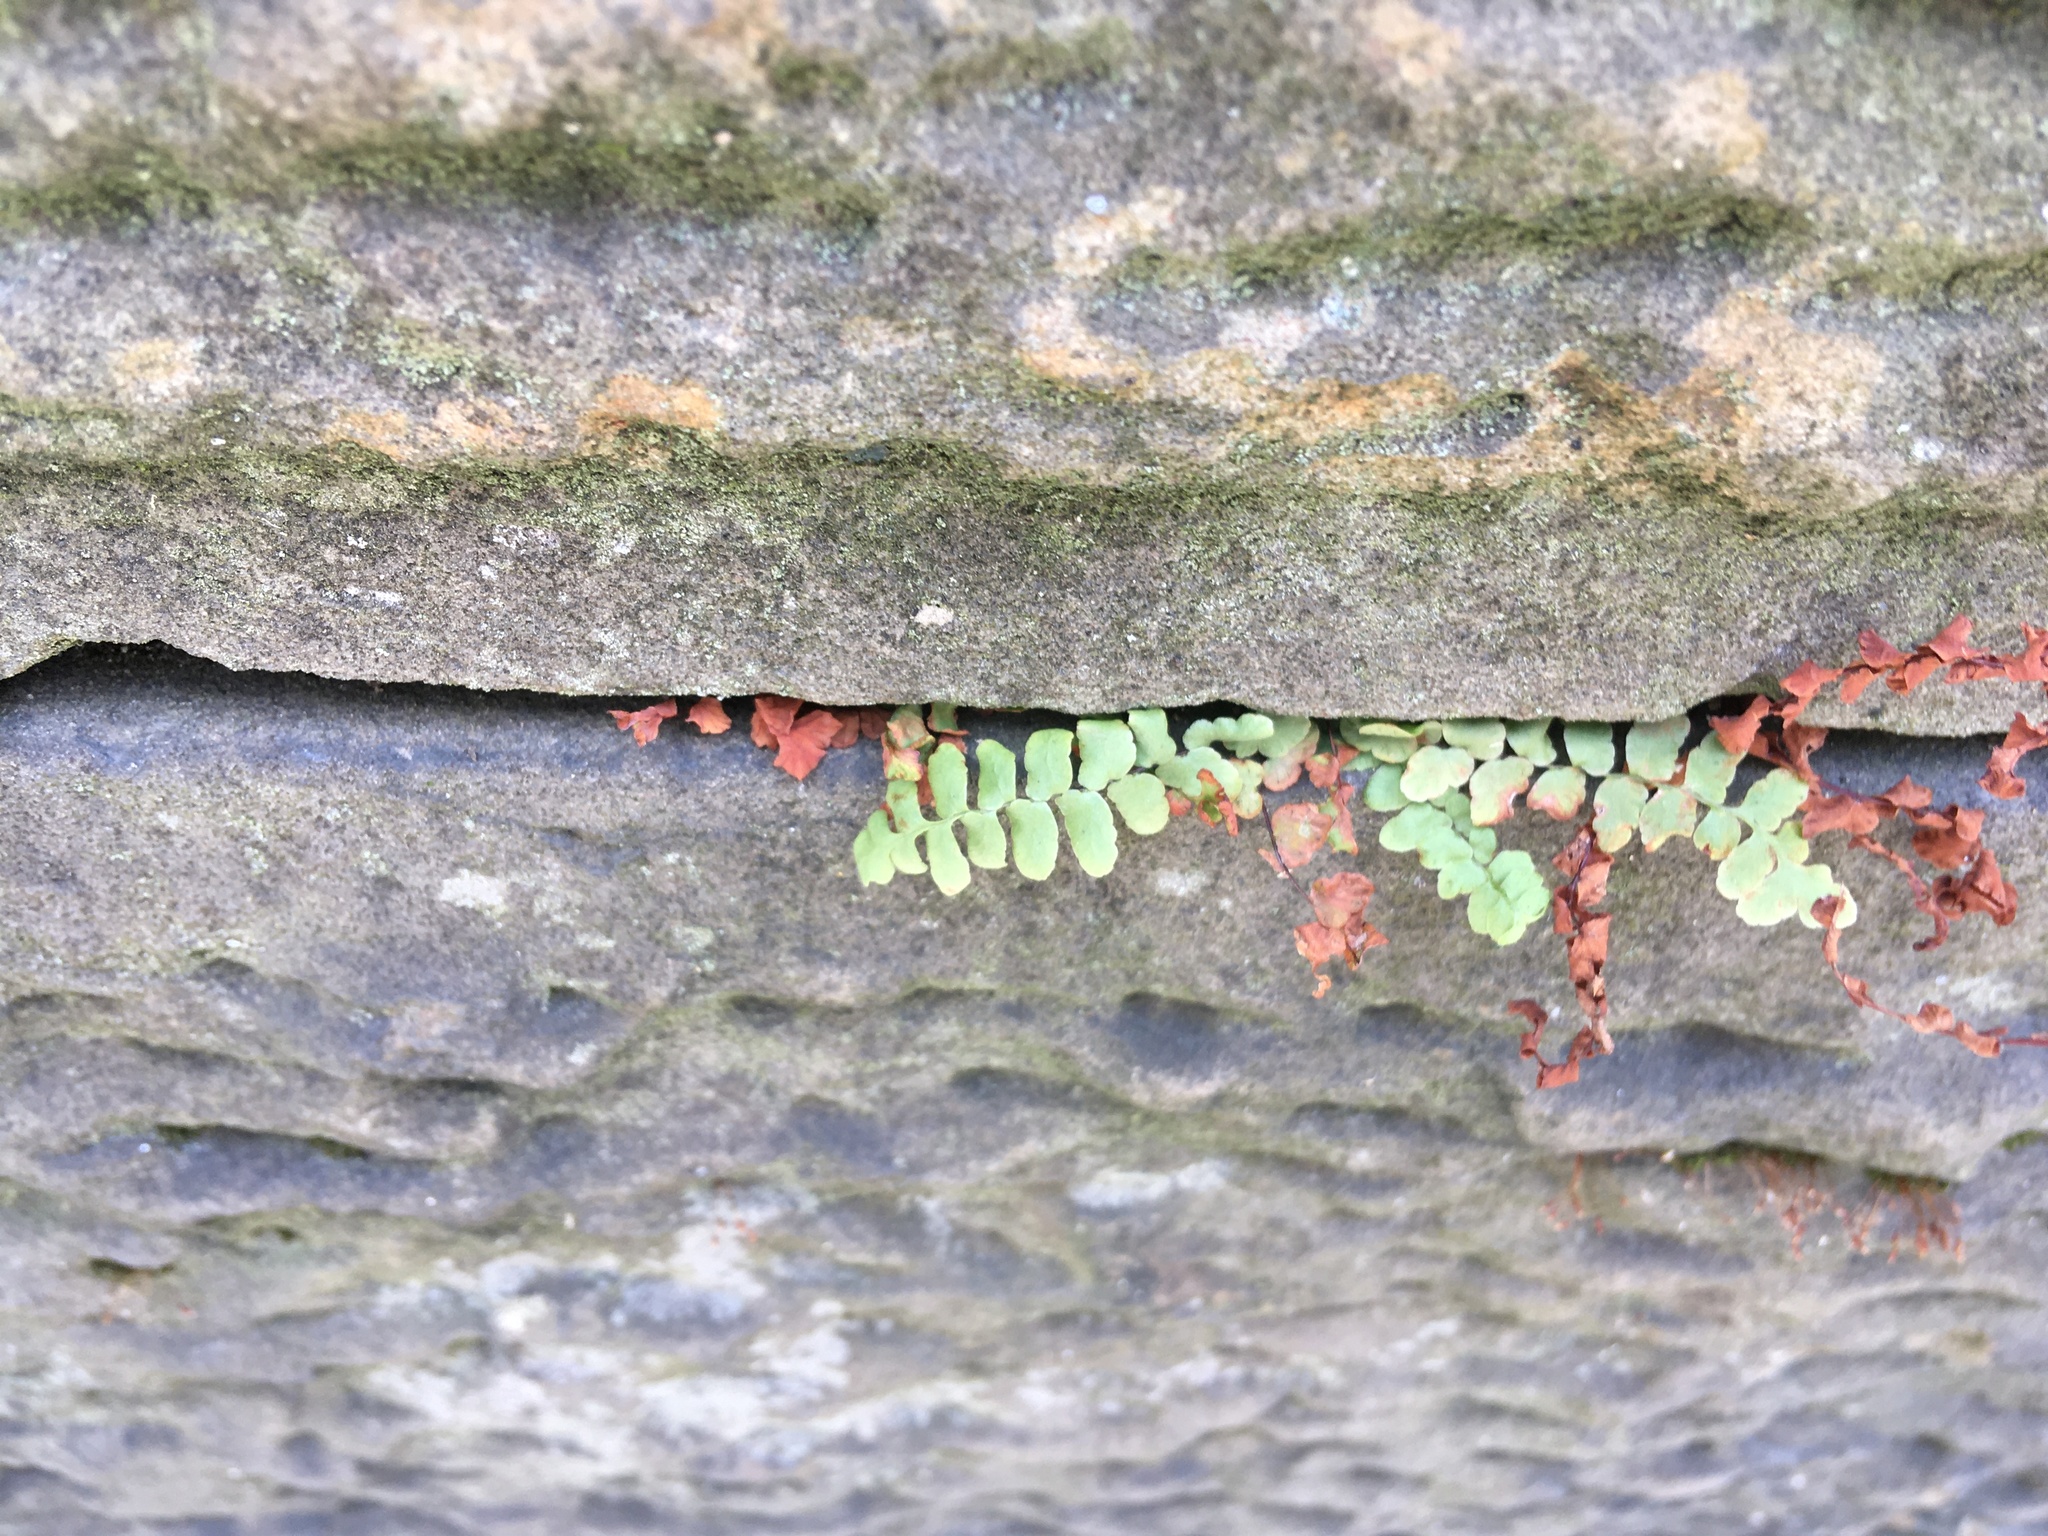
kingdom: Plantae
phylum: Tracheophyta
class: Polypodiopsida
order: Polypodiales
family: Aspleniaceae
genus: Asplenium
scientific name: Asplenium platyneuron
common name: Ebony spleenwort
